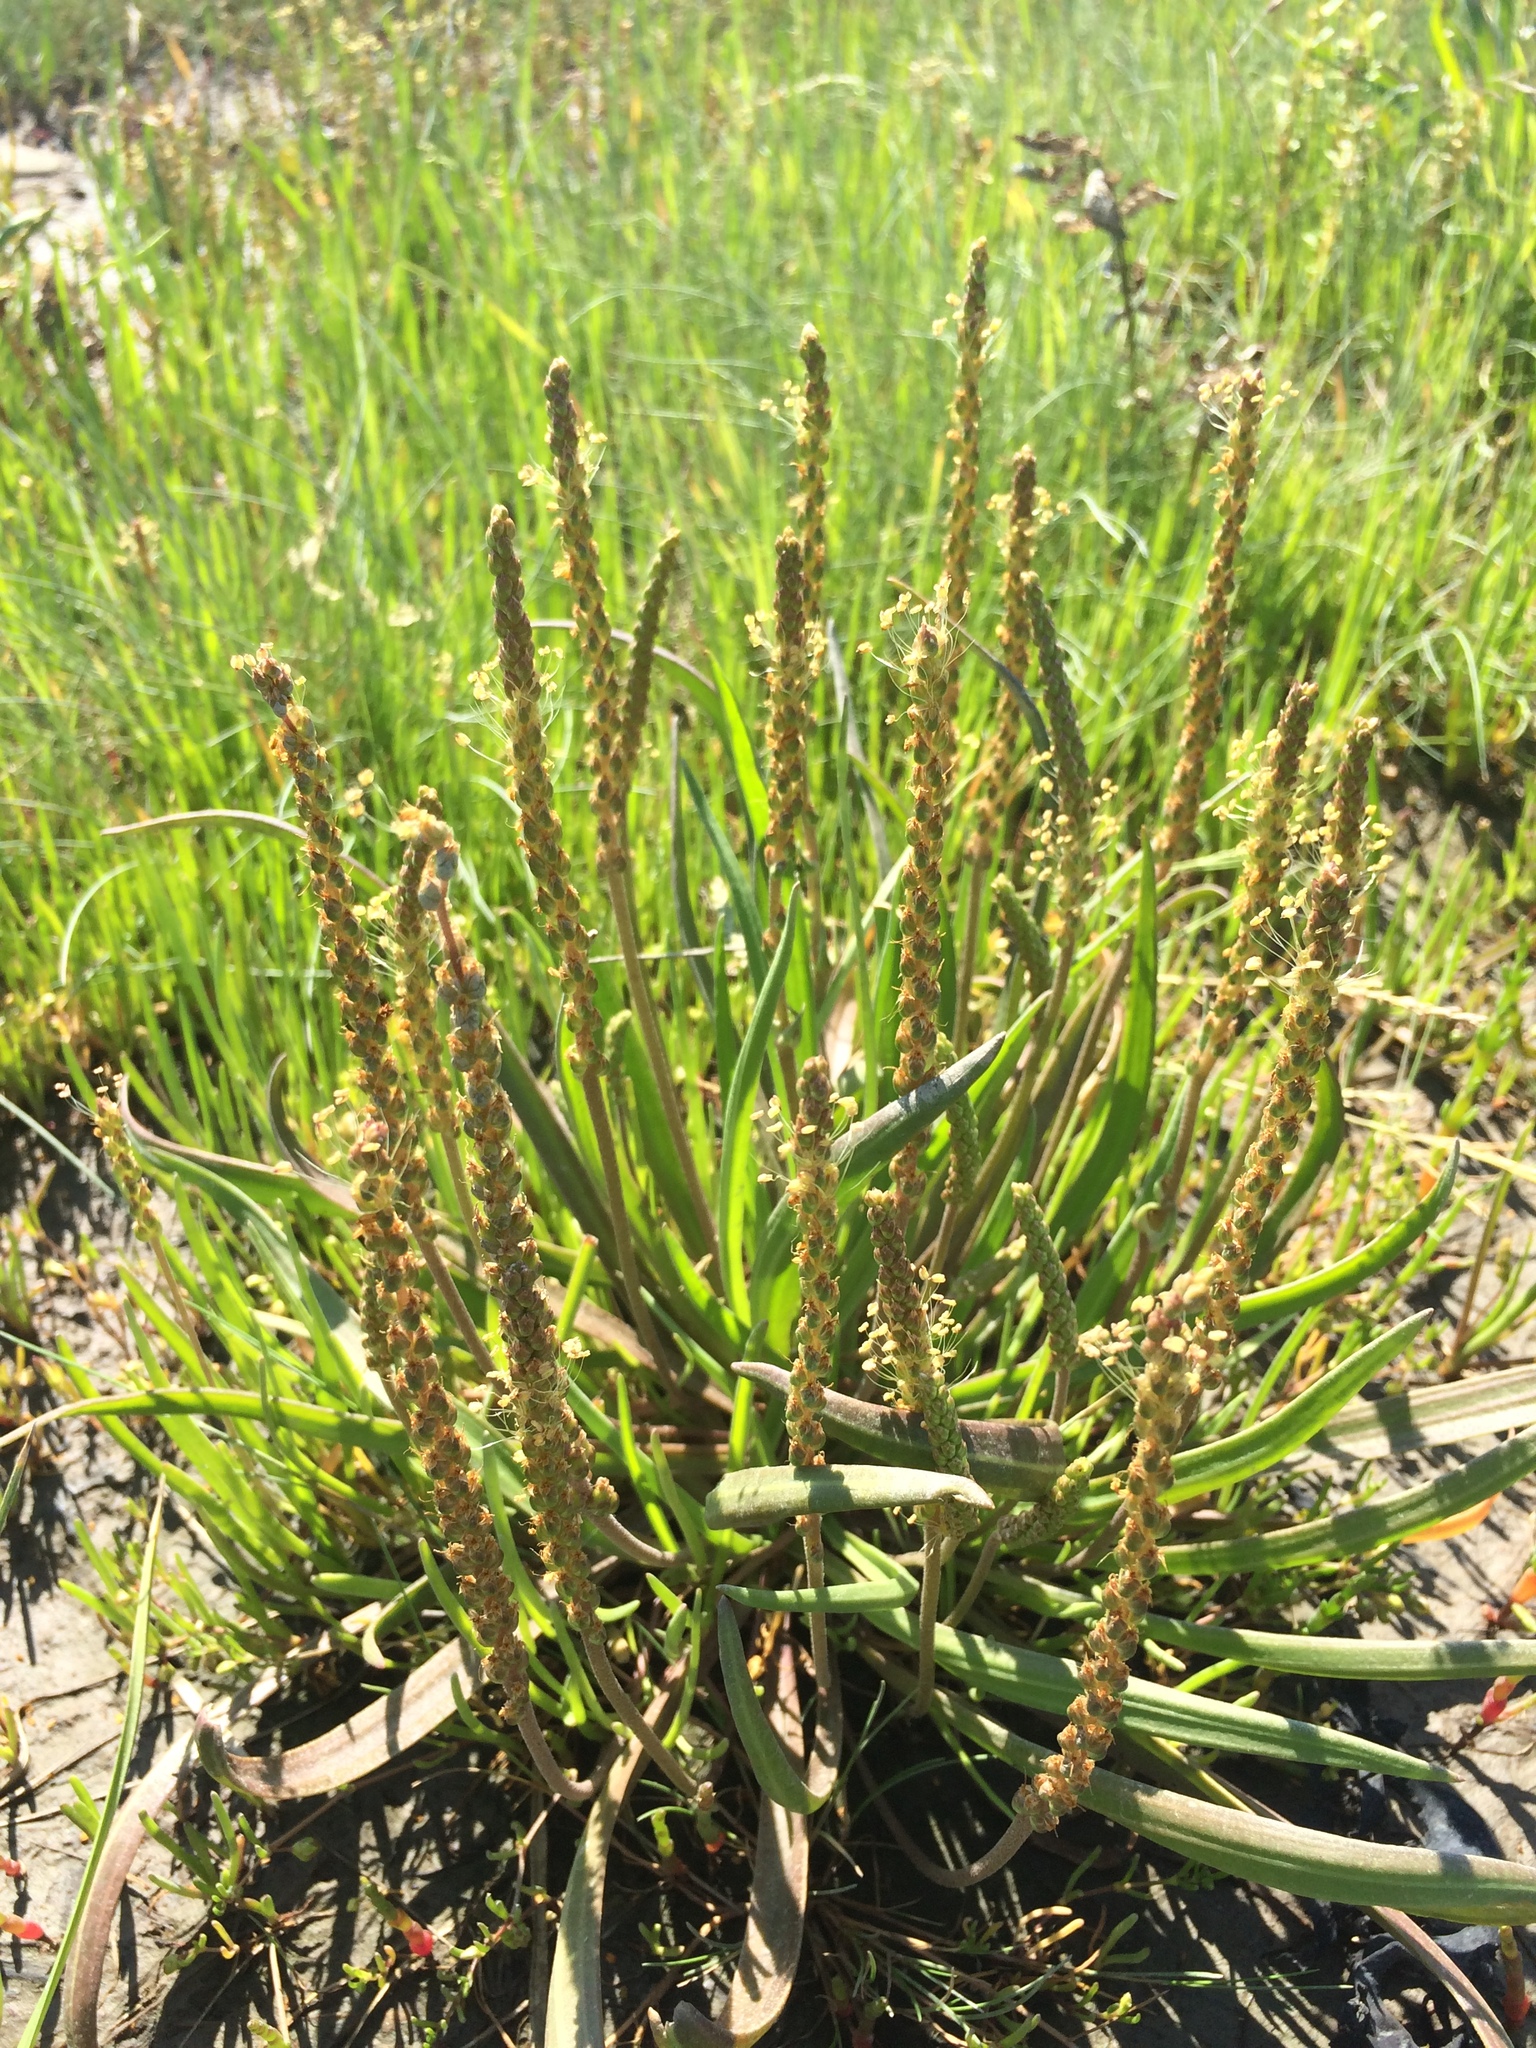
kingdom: Plantae
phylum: Tracheophyta
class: Magnoliopsida
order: Lamiales
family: Plantaginaceae
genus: Plantago
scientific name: Plantago maritima
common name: Sea plantain
